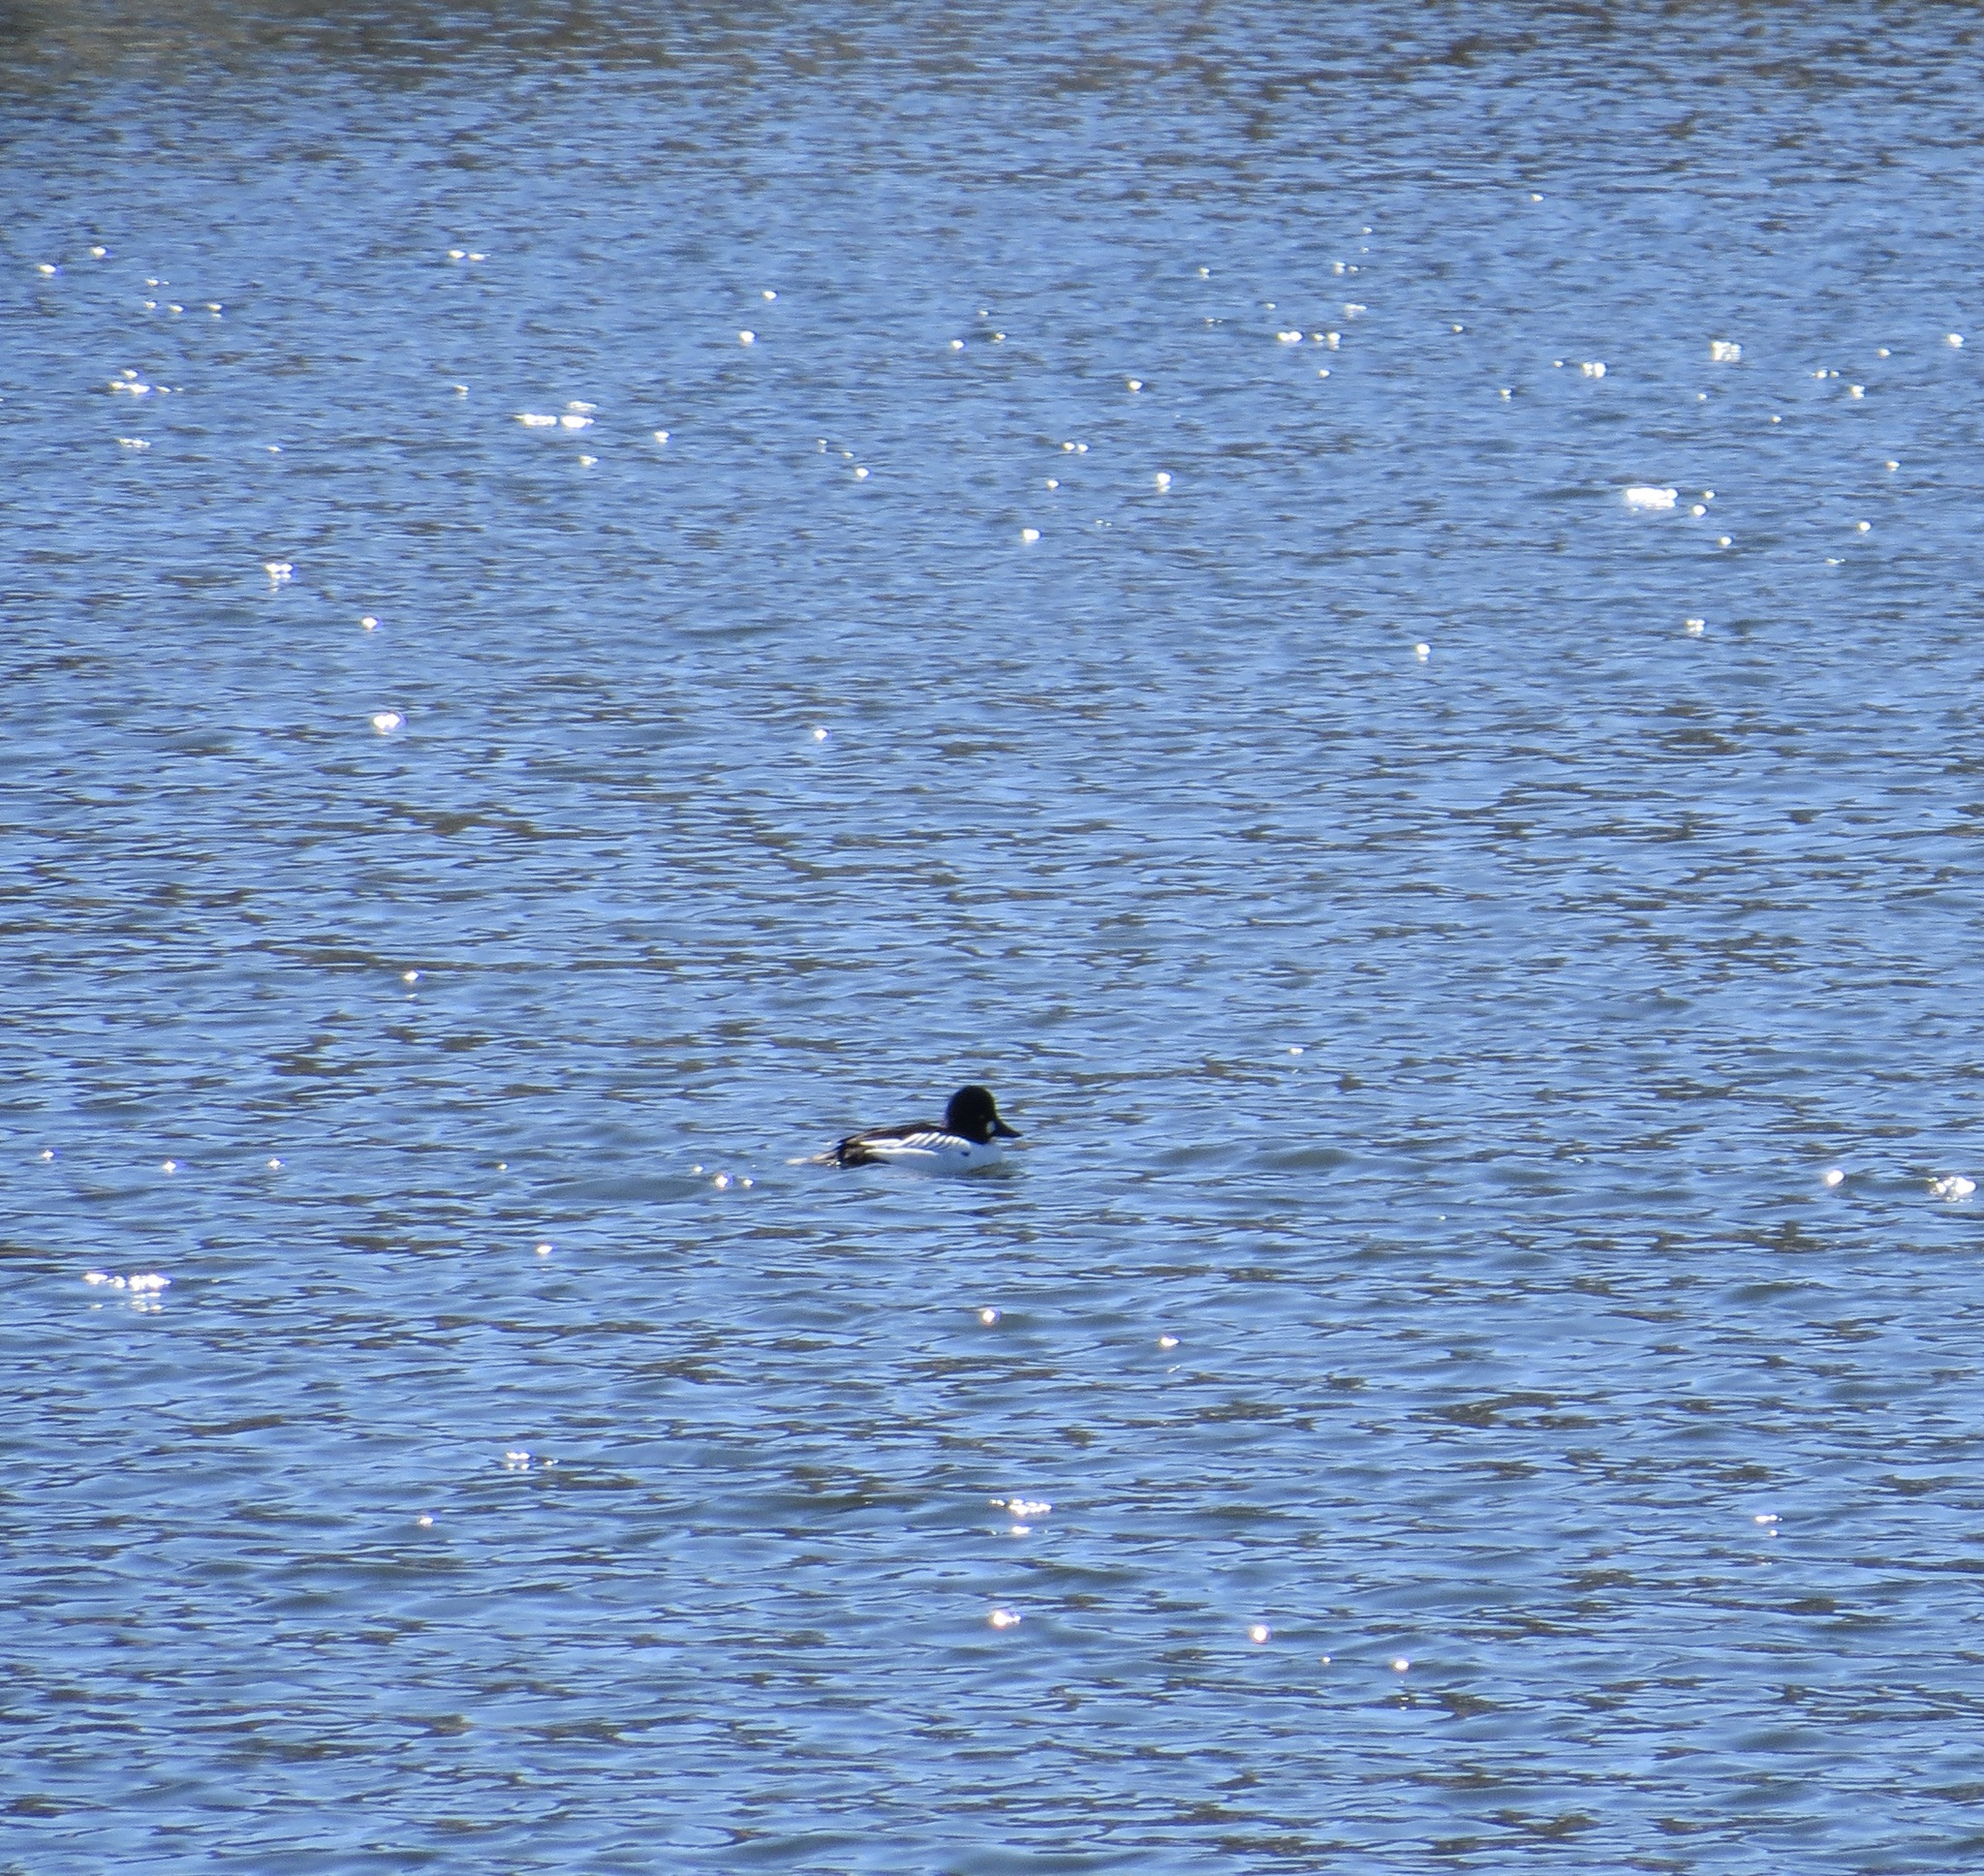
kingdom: Animalia
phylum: Chordata
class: Aves
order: Anseriformes
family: Anatidae
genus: Bucephala
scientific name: Bucephala clangula
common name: Common goldeneye
